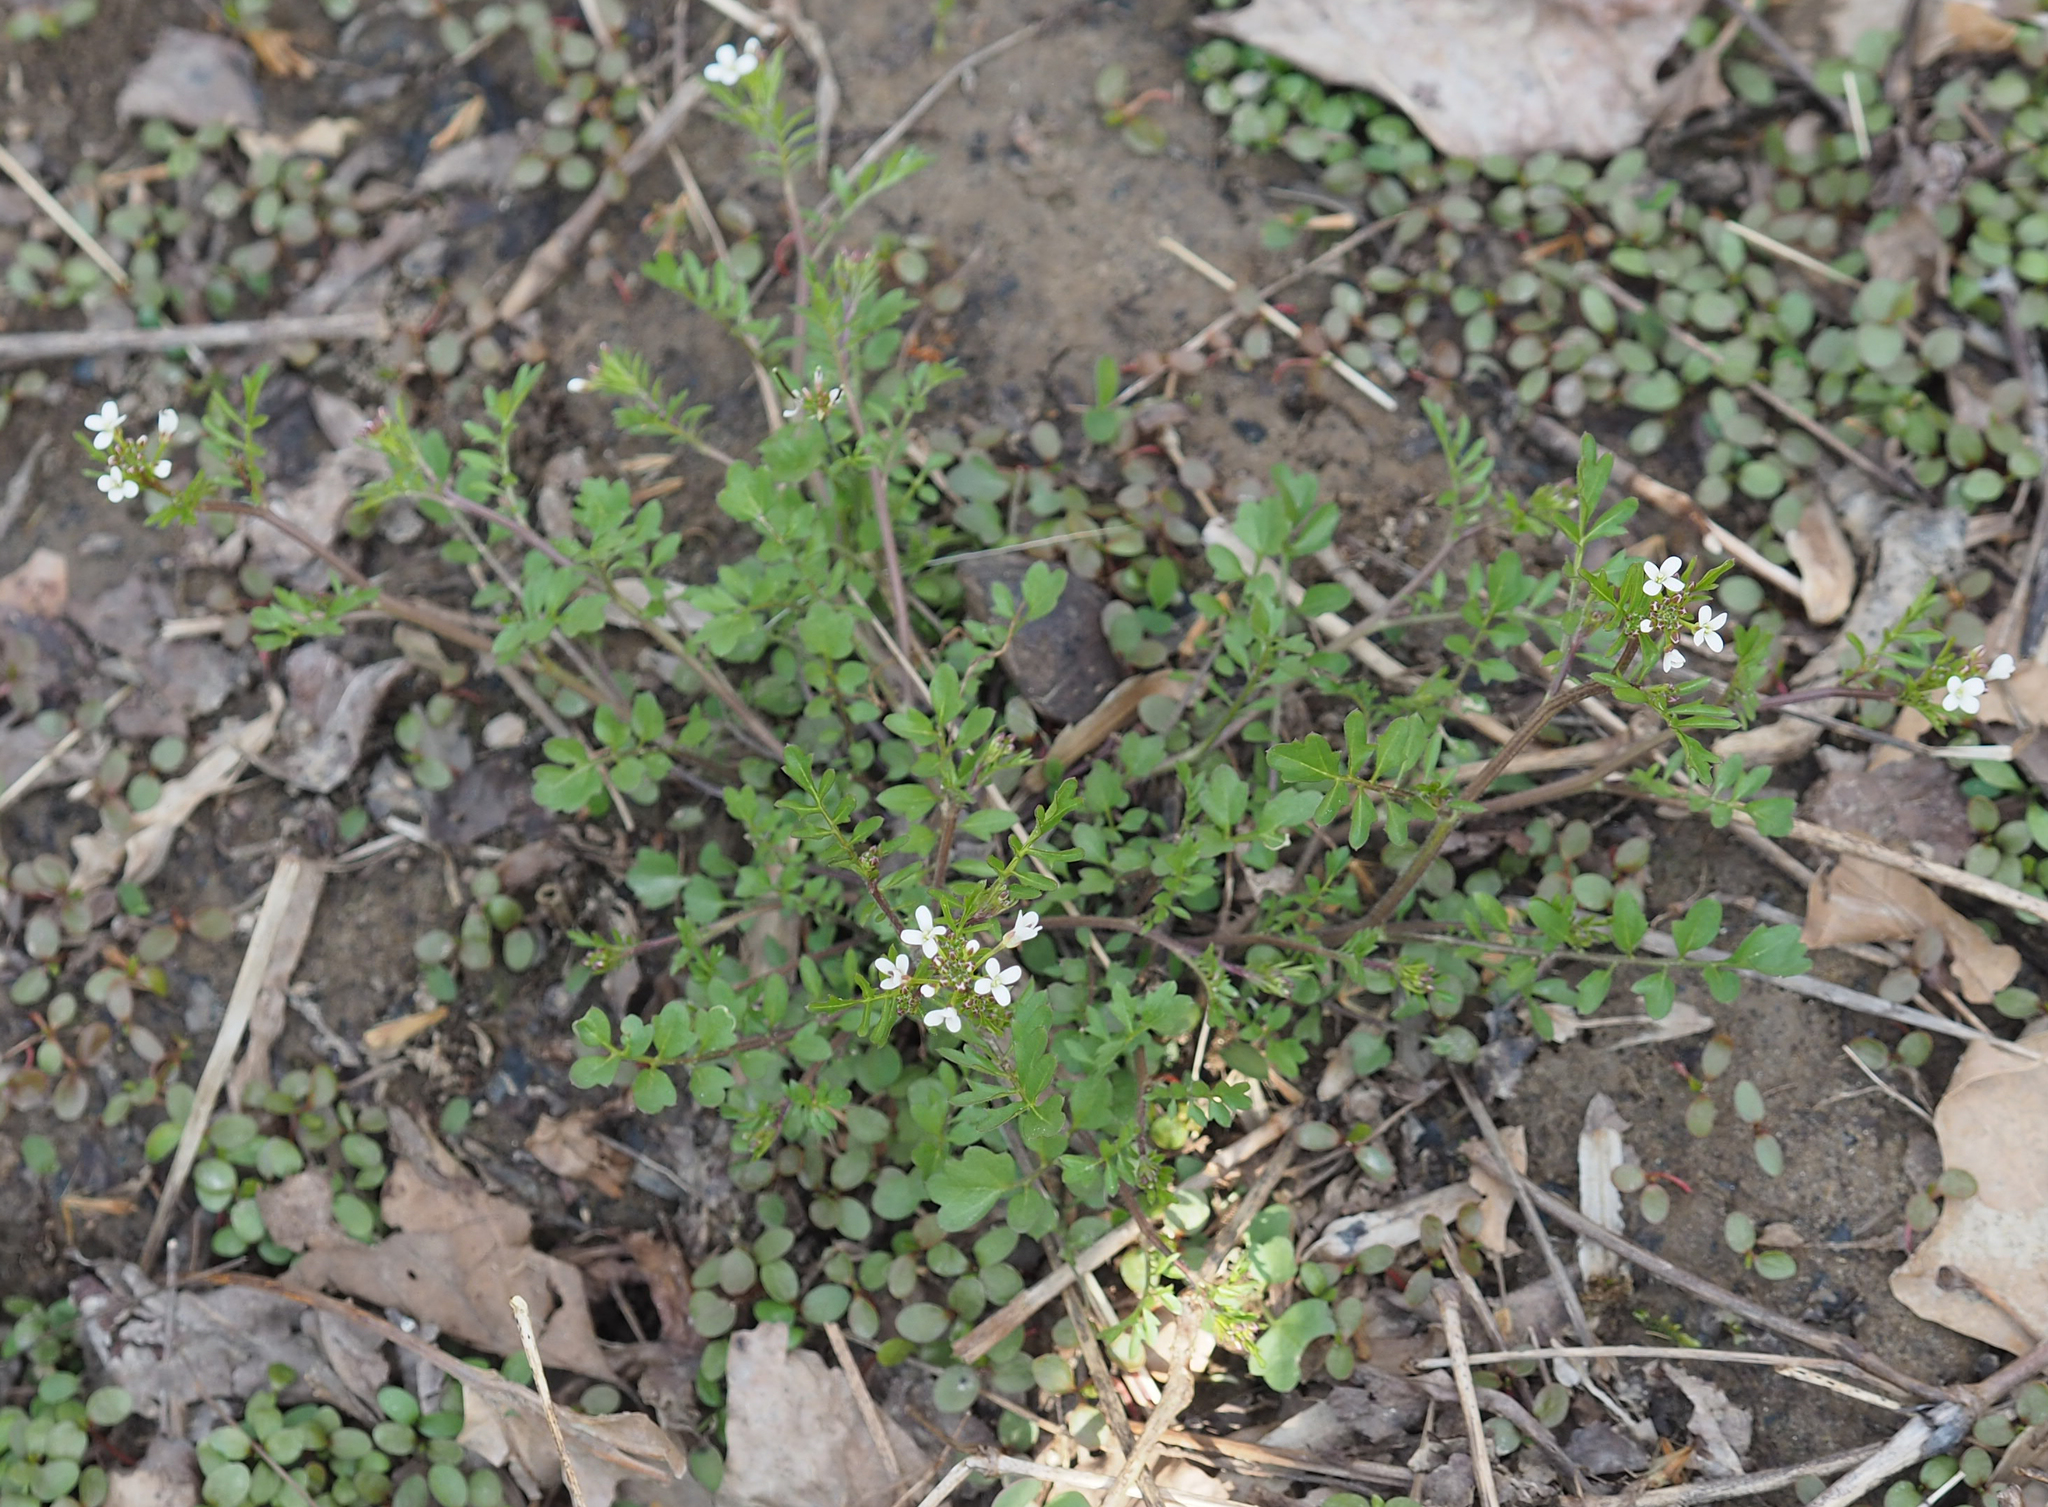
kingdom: Plantae
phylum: Tracheophyta
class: Magnoliopsida
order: Brassicales
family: Brassicaceae
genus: Cardamine
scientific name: Cardamine hirsuta
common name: Hairy bittercress
